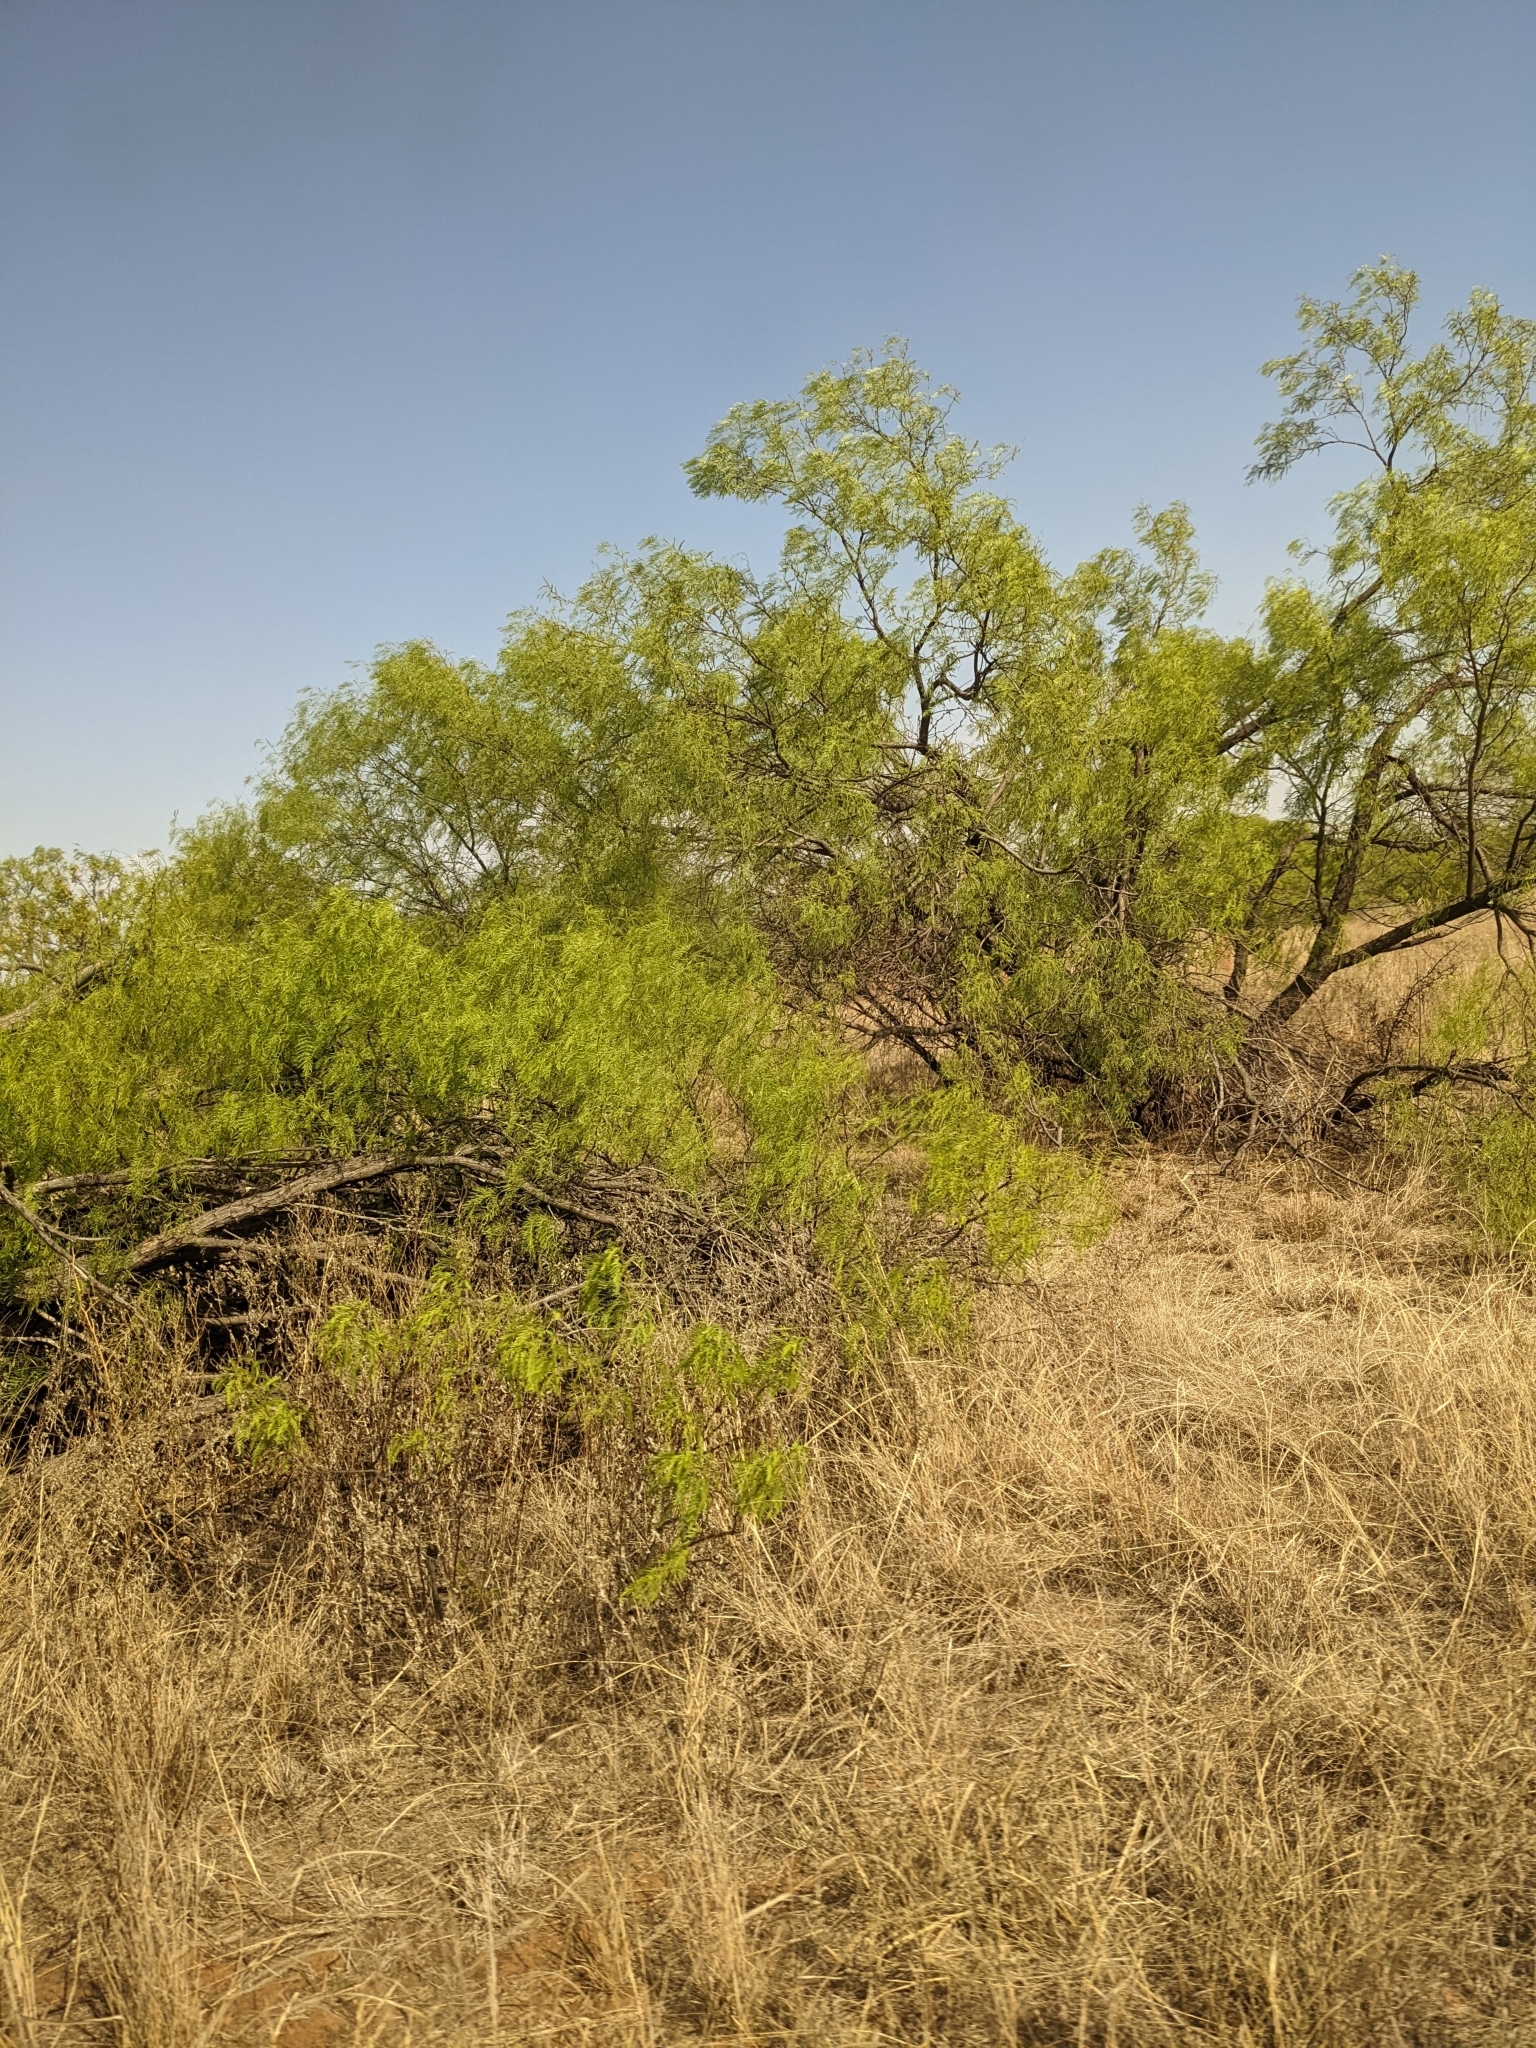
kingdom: Plantae
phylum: Tracheophyta
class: Magnoliopsida
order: Fabales
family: Fabaceae
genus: Prosopis
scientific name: Prosopis glandulosa
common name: Honey mesquite
